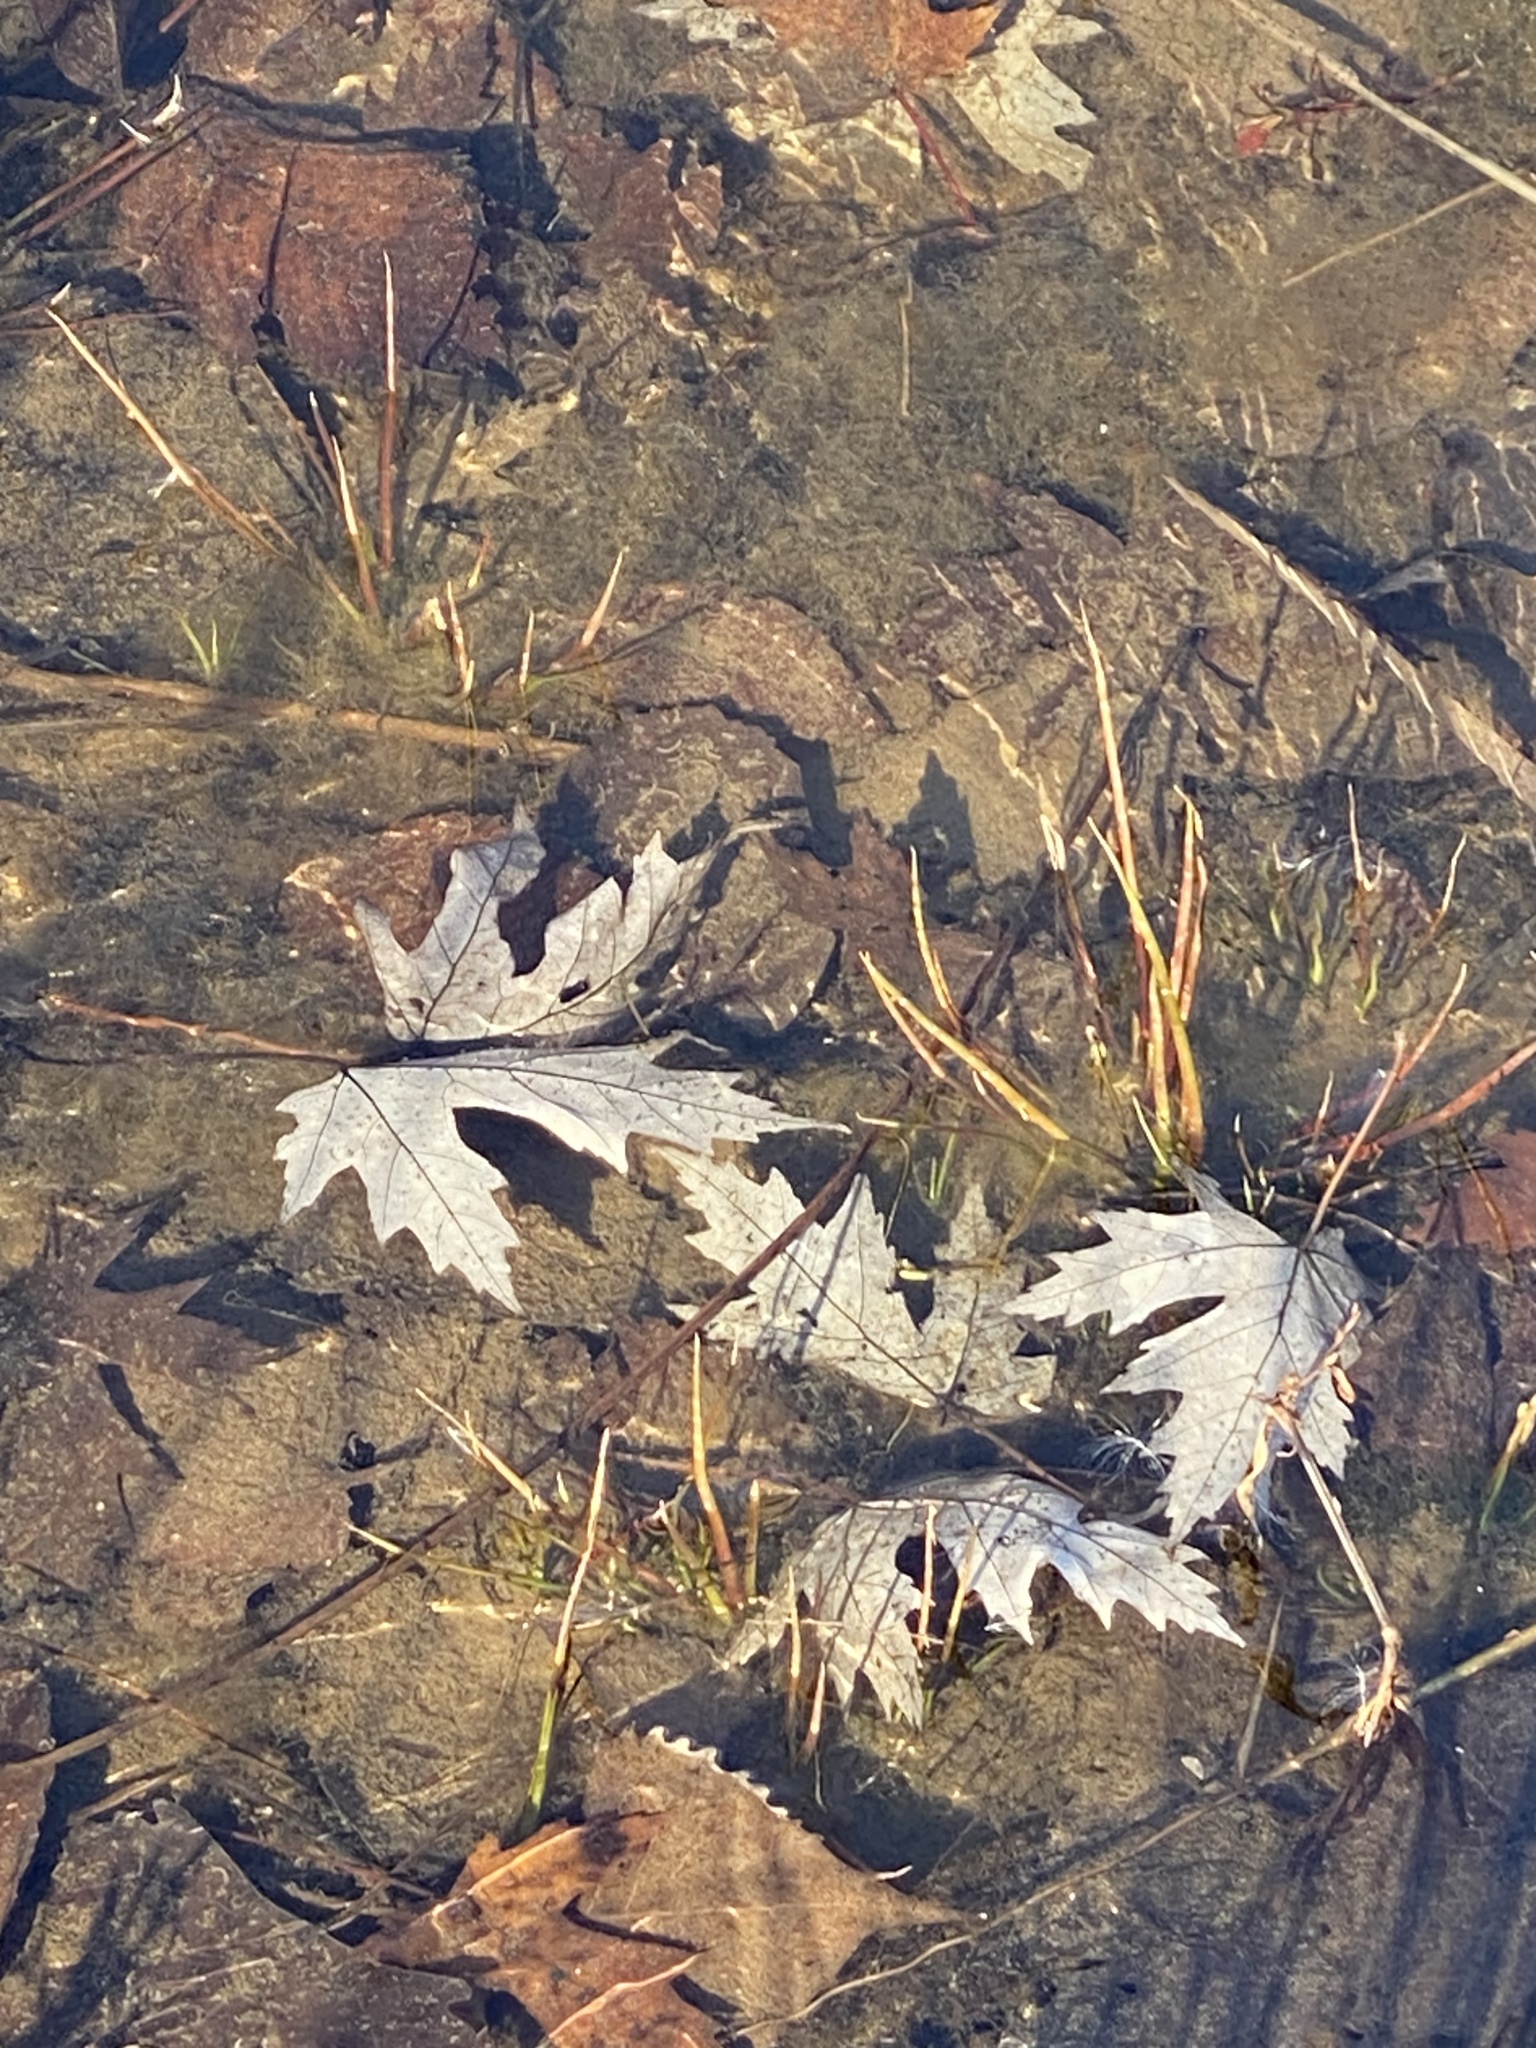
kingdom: Plantae
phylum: Tracheophyta
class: Magnoliopsida
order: Sapindales
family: Sapindaceae
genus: Acer
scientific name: Acer saccharinum
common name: Silver maple
